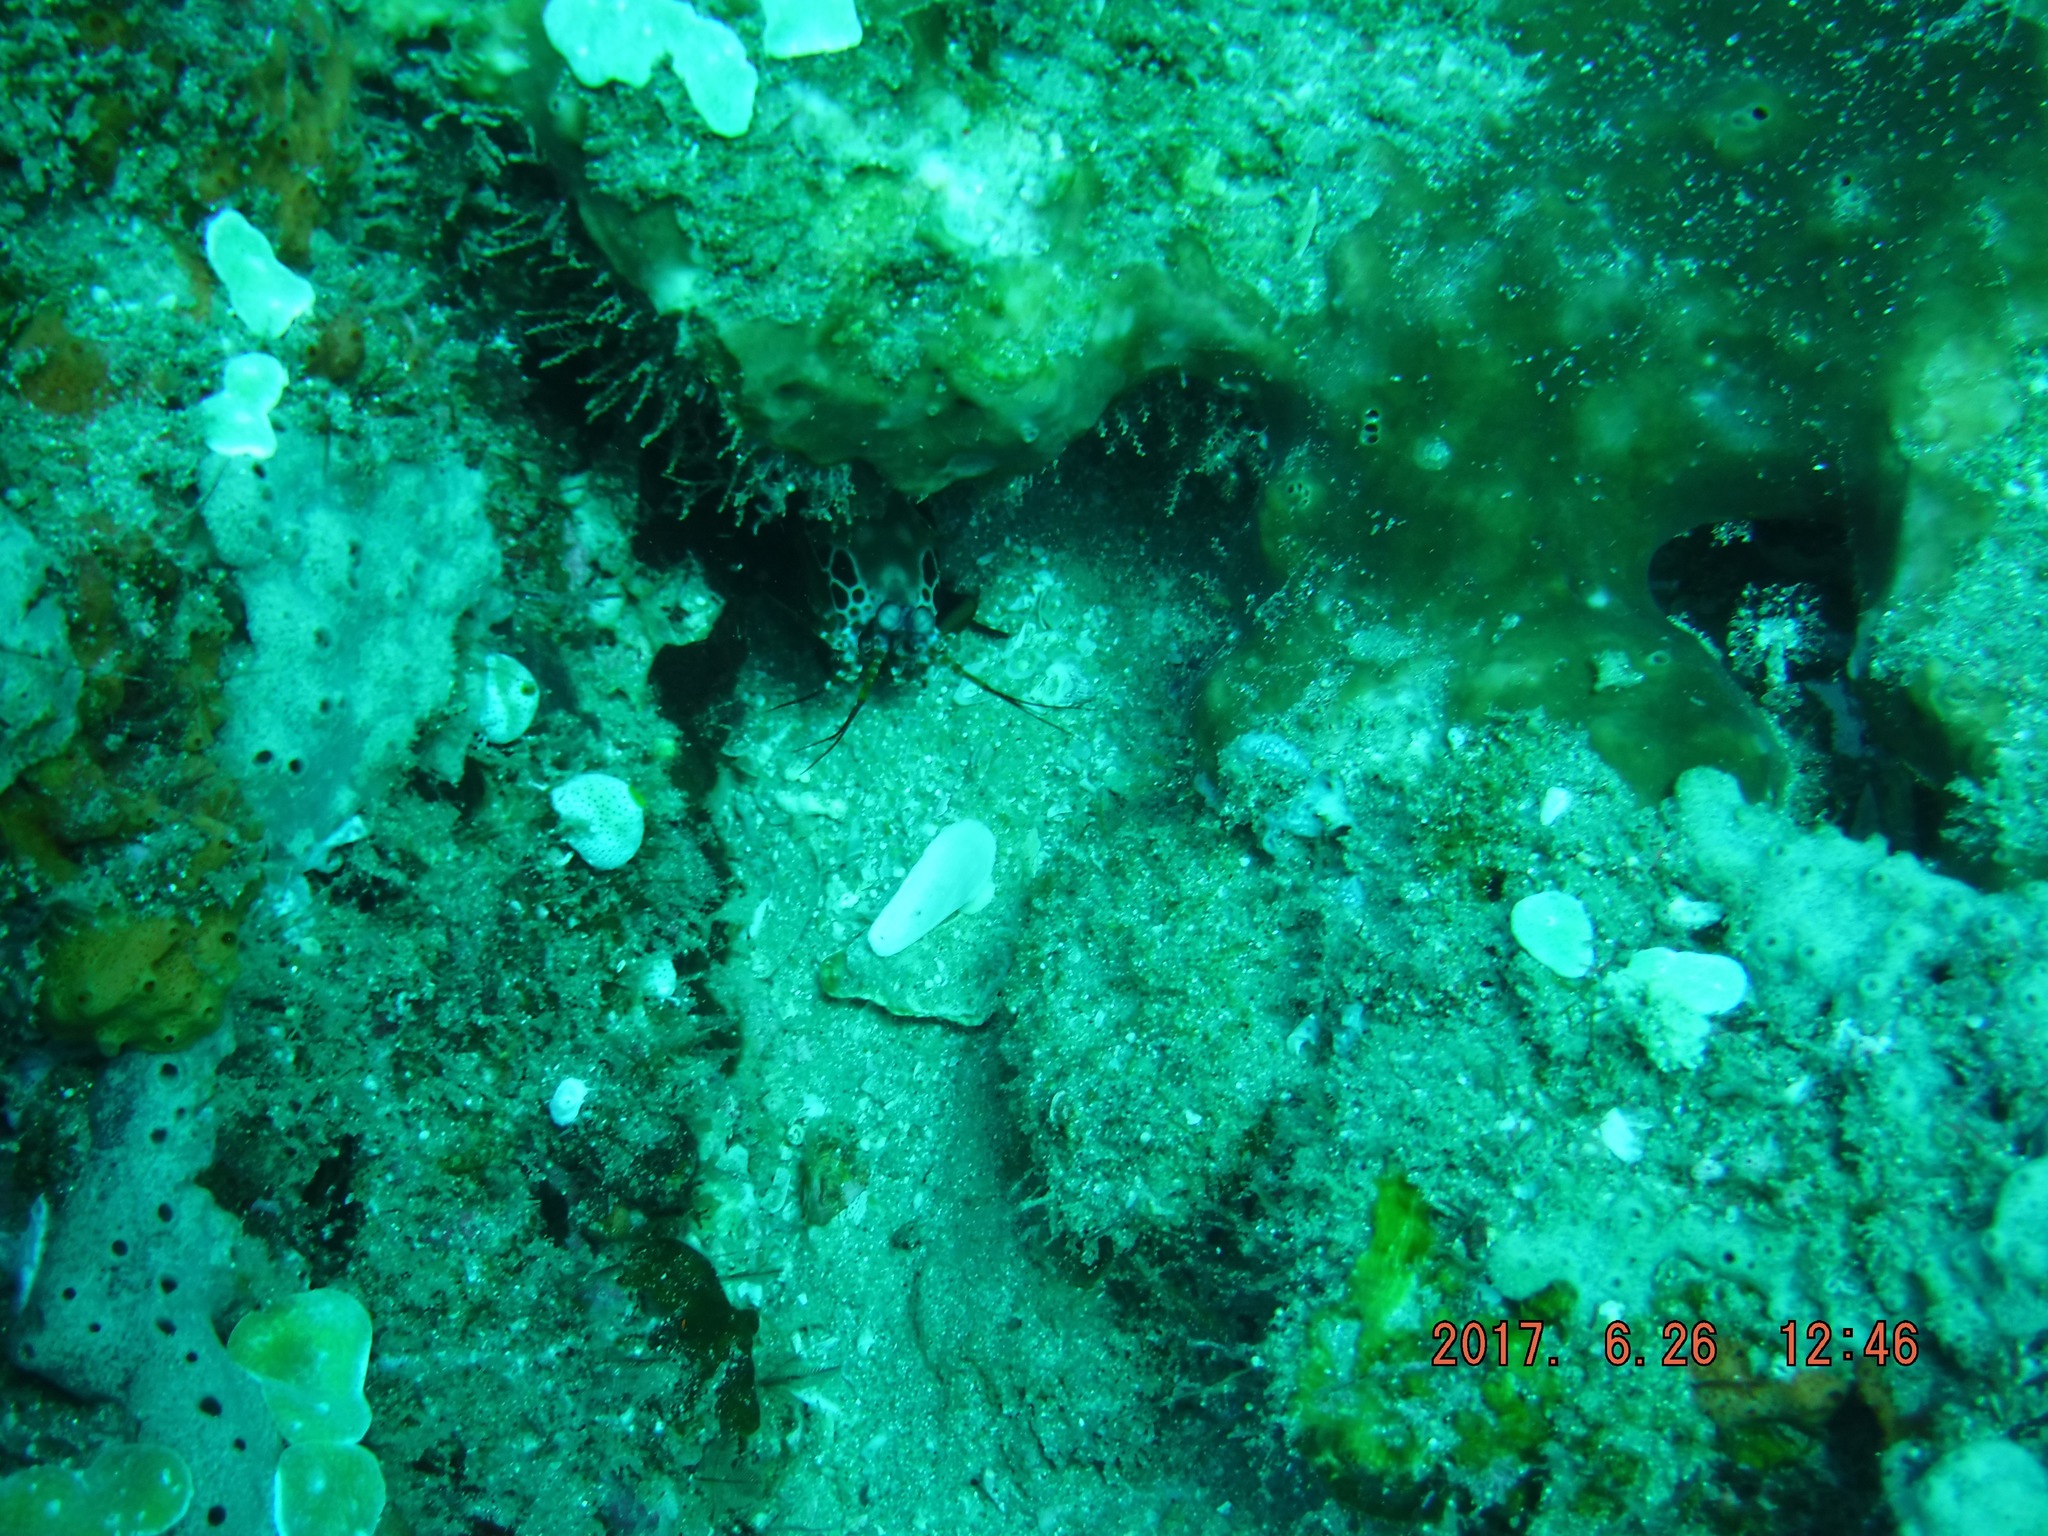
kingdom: Animalia
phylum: Arthropoda
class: Malacostraca
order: Stomatopoda
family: Odontodactylidae
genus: Odontodactylus
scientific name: Odontodactylus scyllarus
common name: Peacock mantis shrimp
